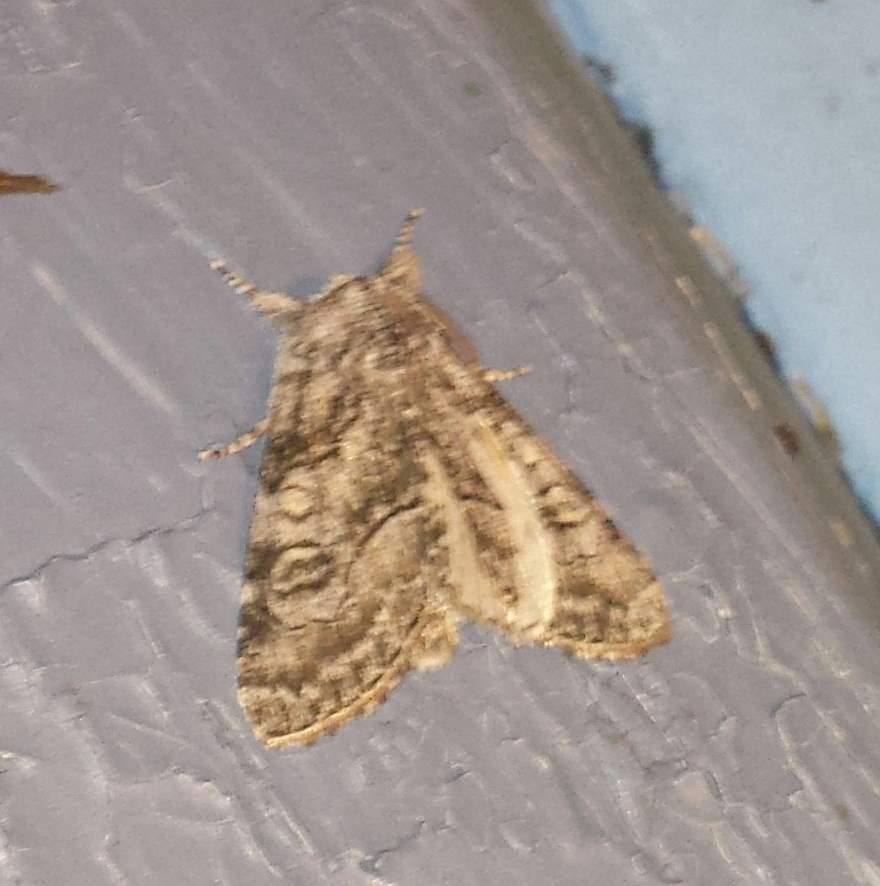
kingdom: Animalia
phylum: Arthropoda
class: Insecta
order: Lepidoptera
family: Noctuidae
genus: Raphia
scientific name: Raphia frater
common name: Brother
